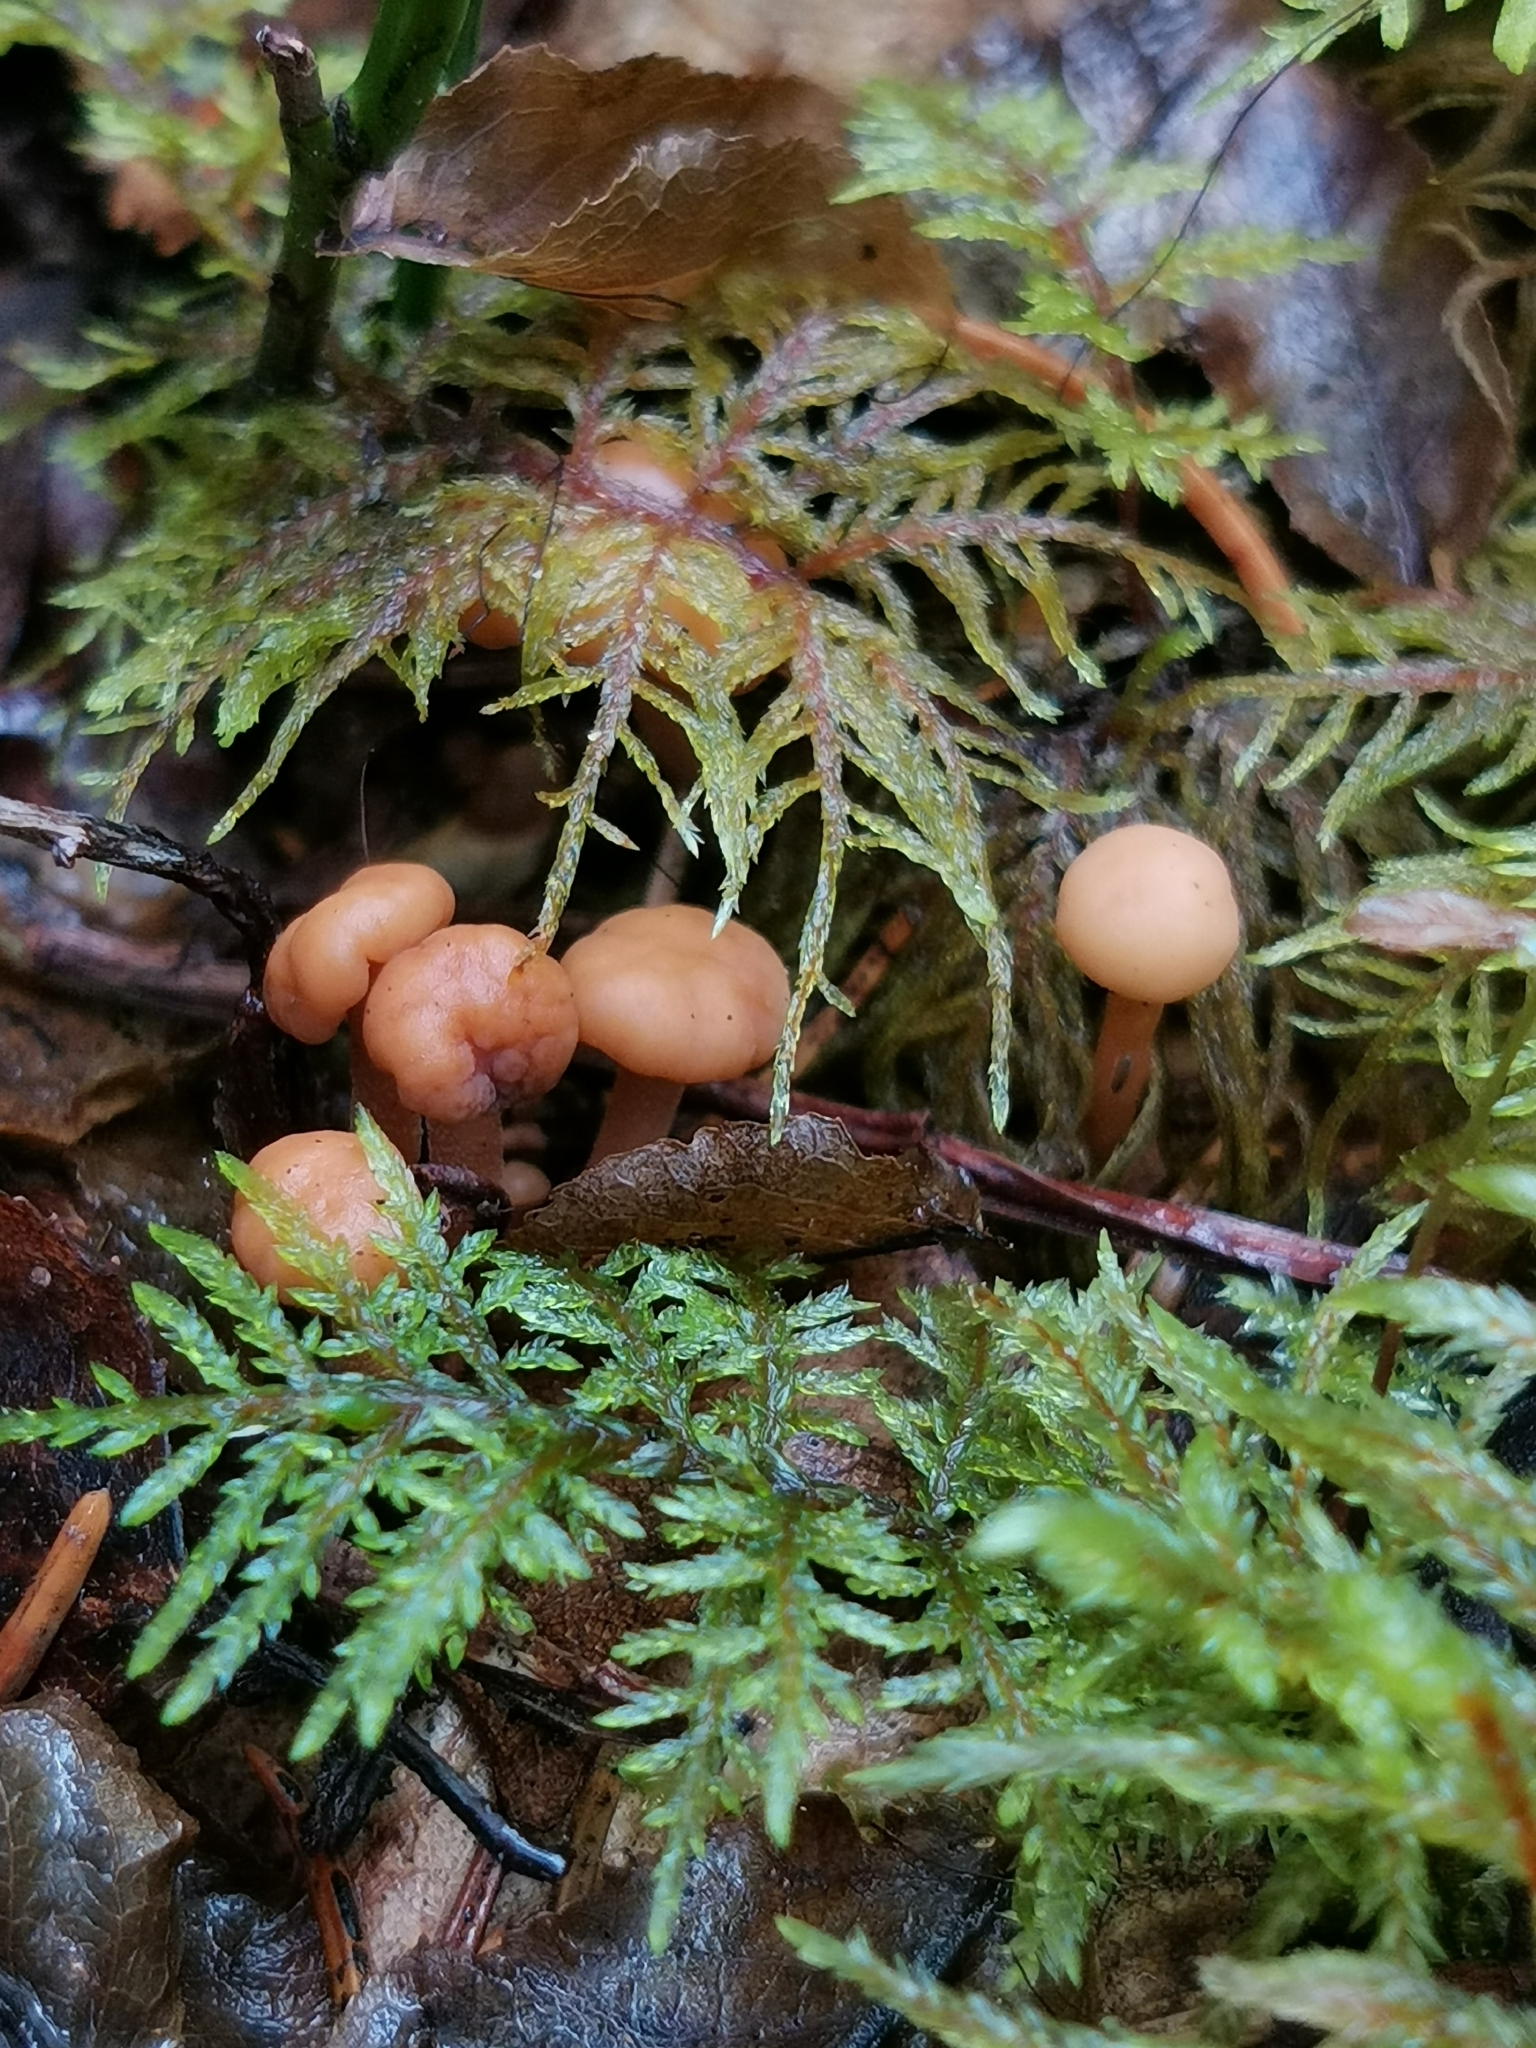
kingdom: Fungi
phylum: Ascomycota
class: Leotiomycetes
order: Rhytismatales
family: Cudoniaceae
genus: Cudonia
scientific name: Cudonia confusa
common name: Cinnamon jellybaby
